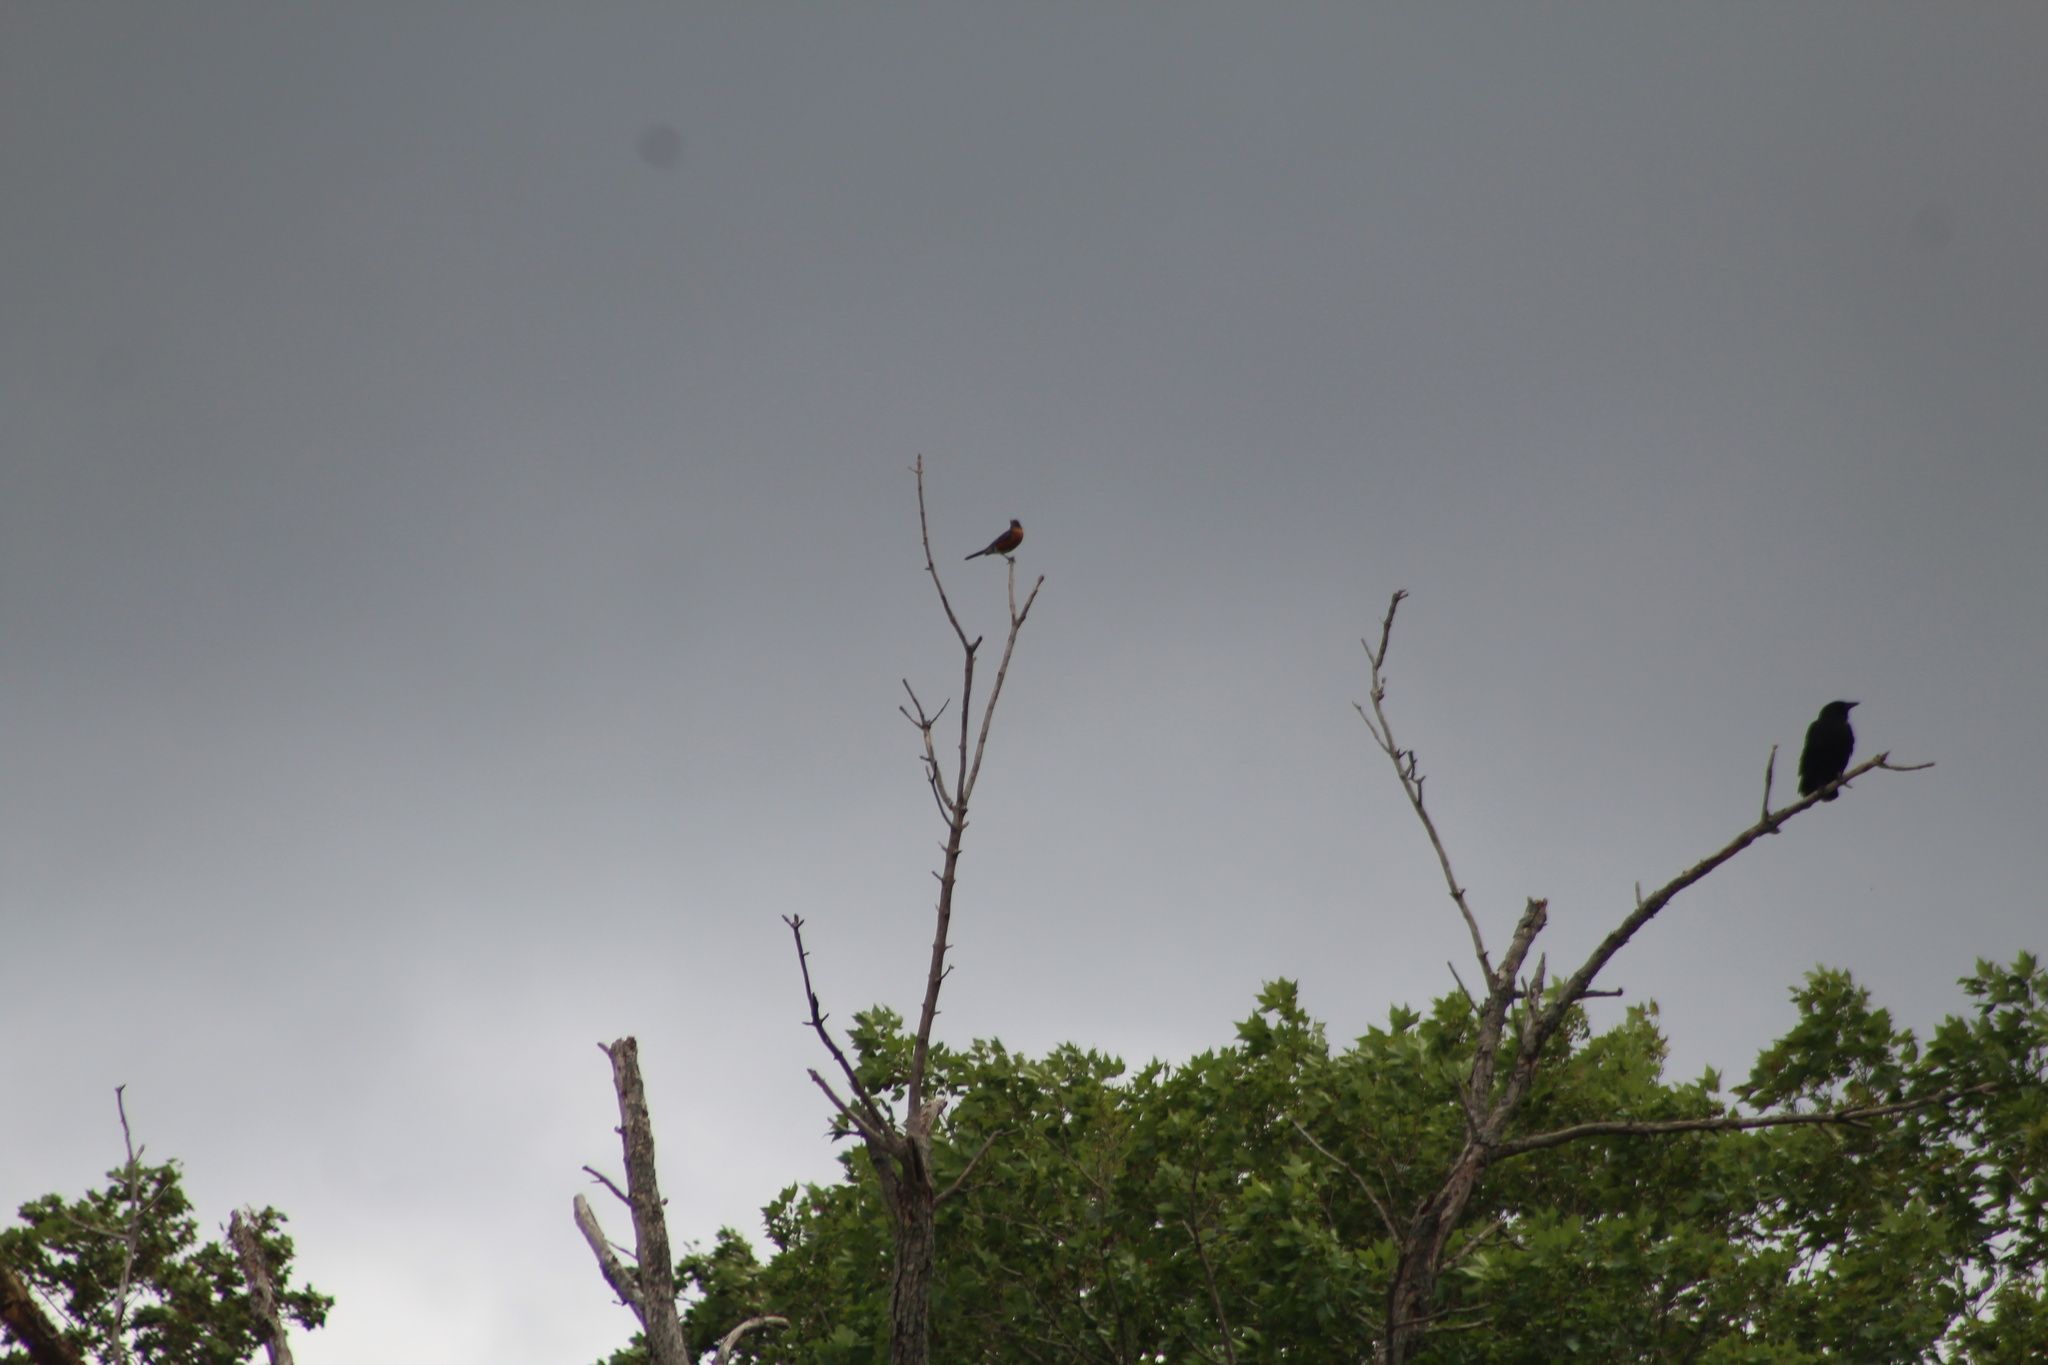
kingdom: Animalia
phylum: Chordata
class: Aves
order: Passeriformes
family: Corvidae
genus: Corvus
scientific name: Corvus brachyrhynchos
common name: American crow
